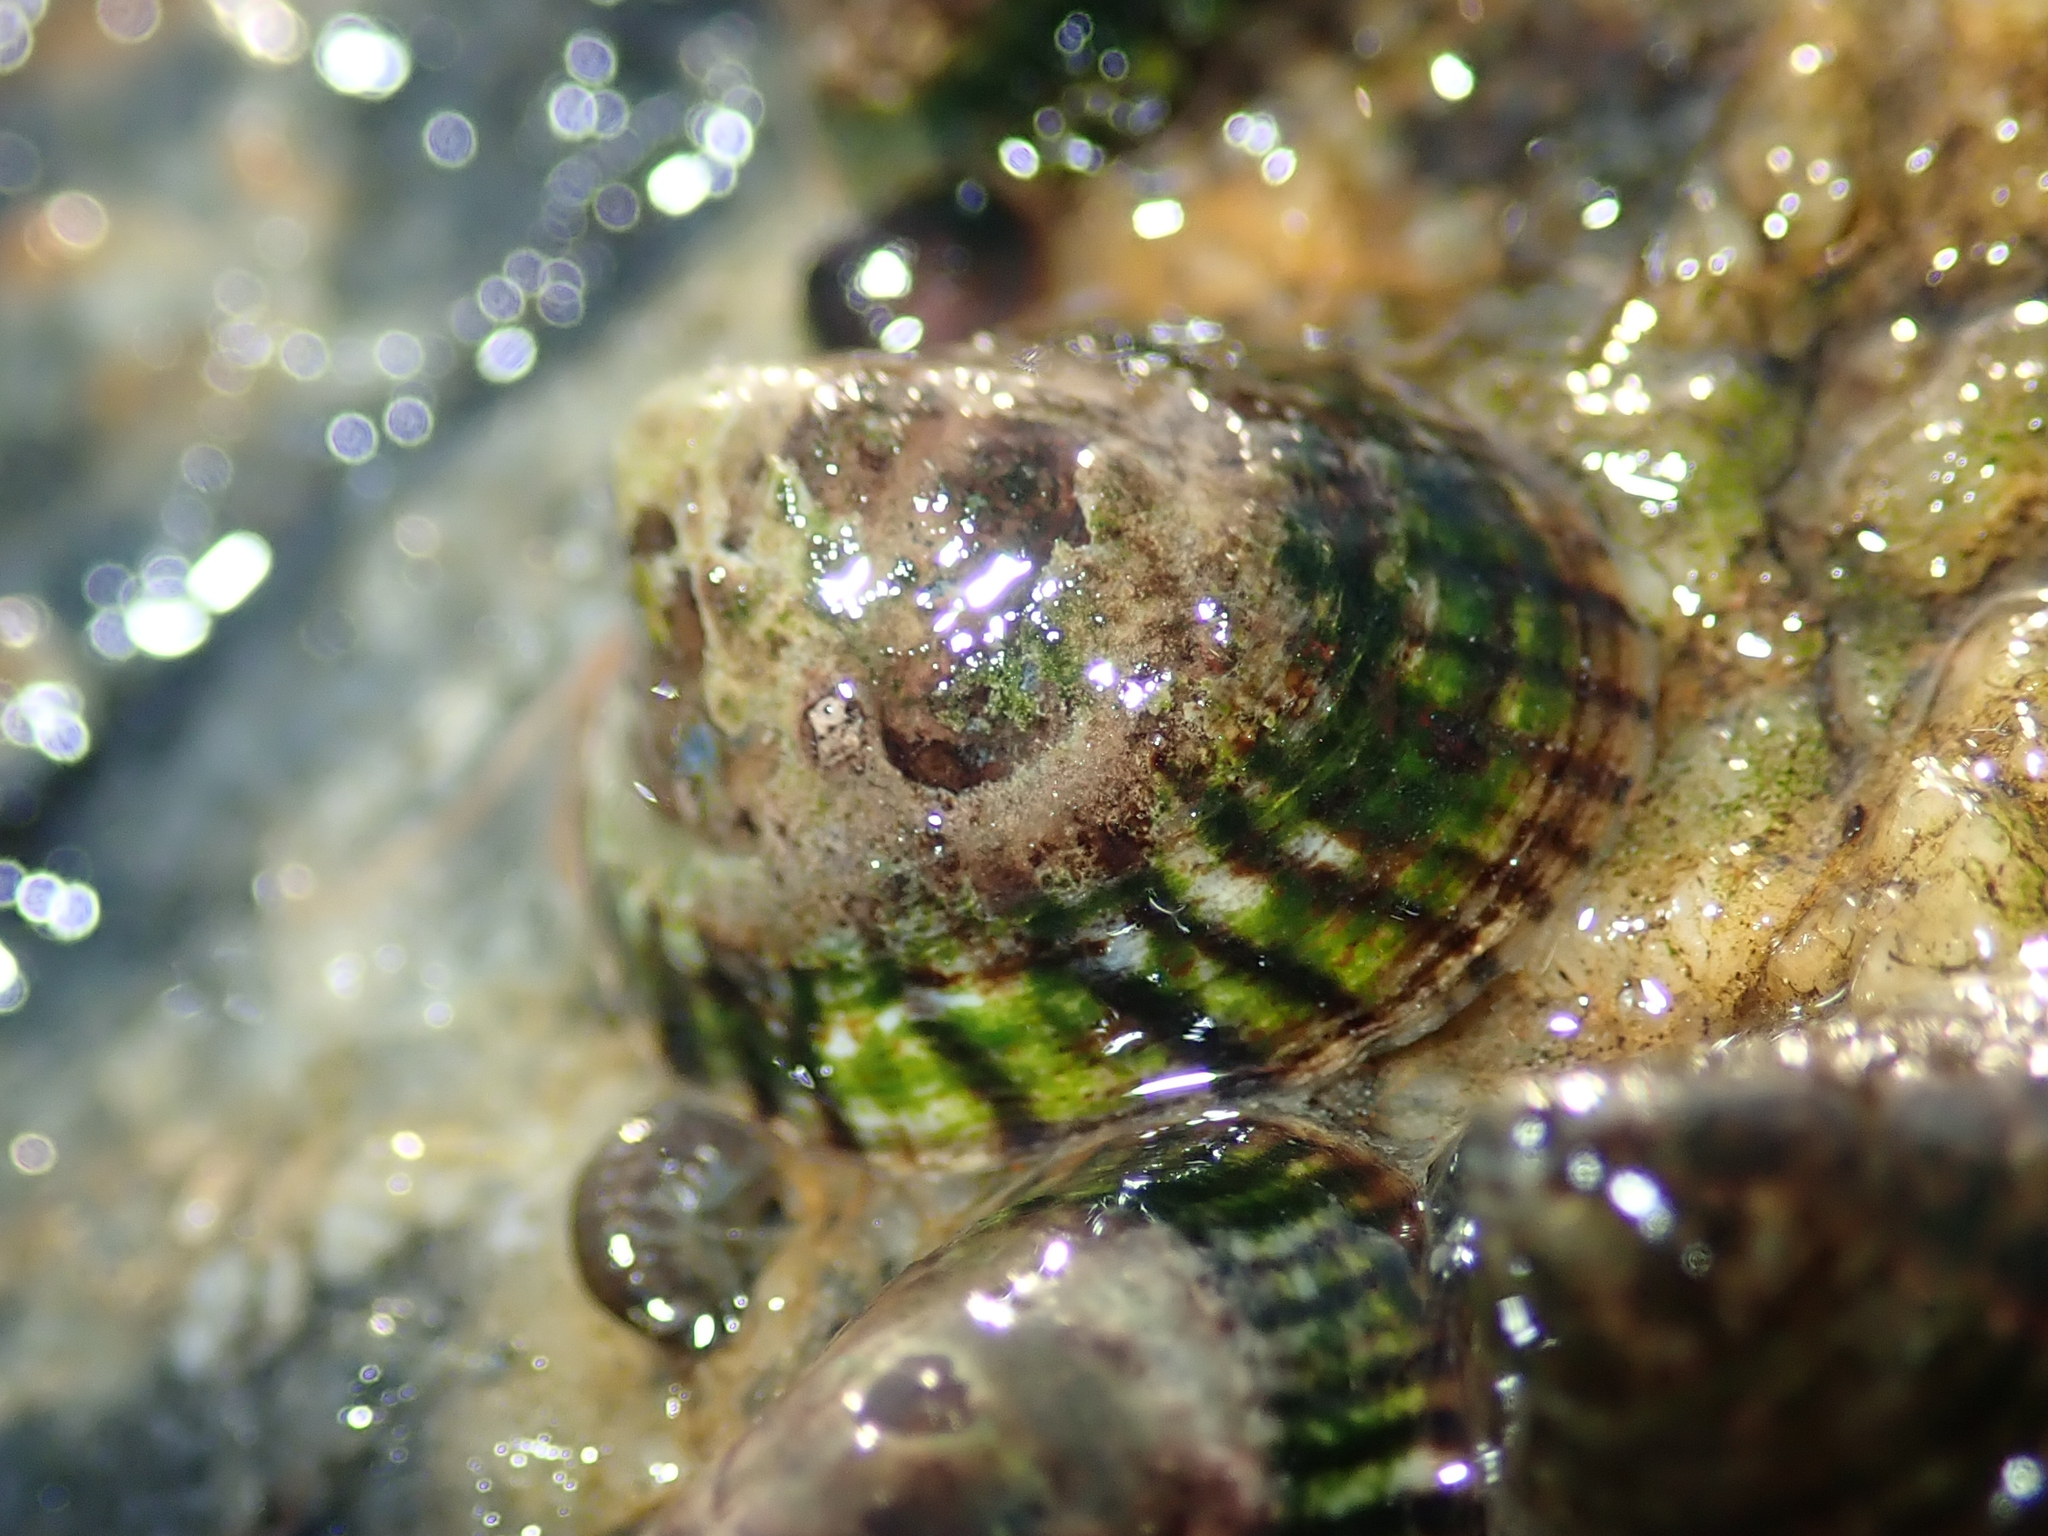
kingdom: Animalia
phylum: Mollusca
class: Gastropoda
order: Siphonariida
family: Siphonariidae
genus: Siphonaria
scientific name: Siphonaria lessonii
